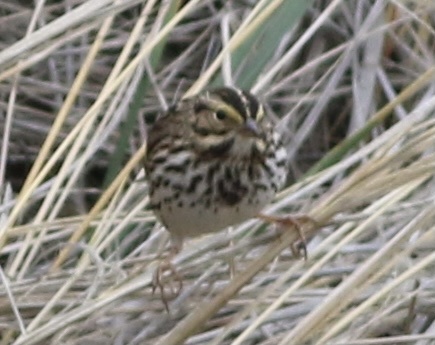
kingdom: Animalia
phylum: Chordata
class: Aves
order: Passeriformes
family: Passerellidae
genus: Passerculus
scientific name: Passerculus sandwichensis
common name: Savannah sparrow
